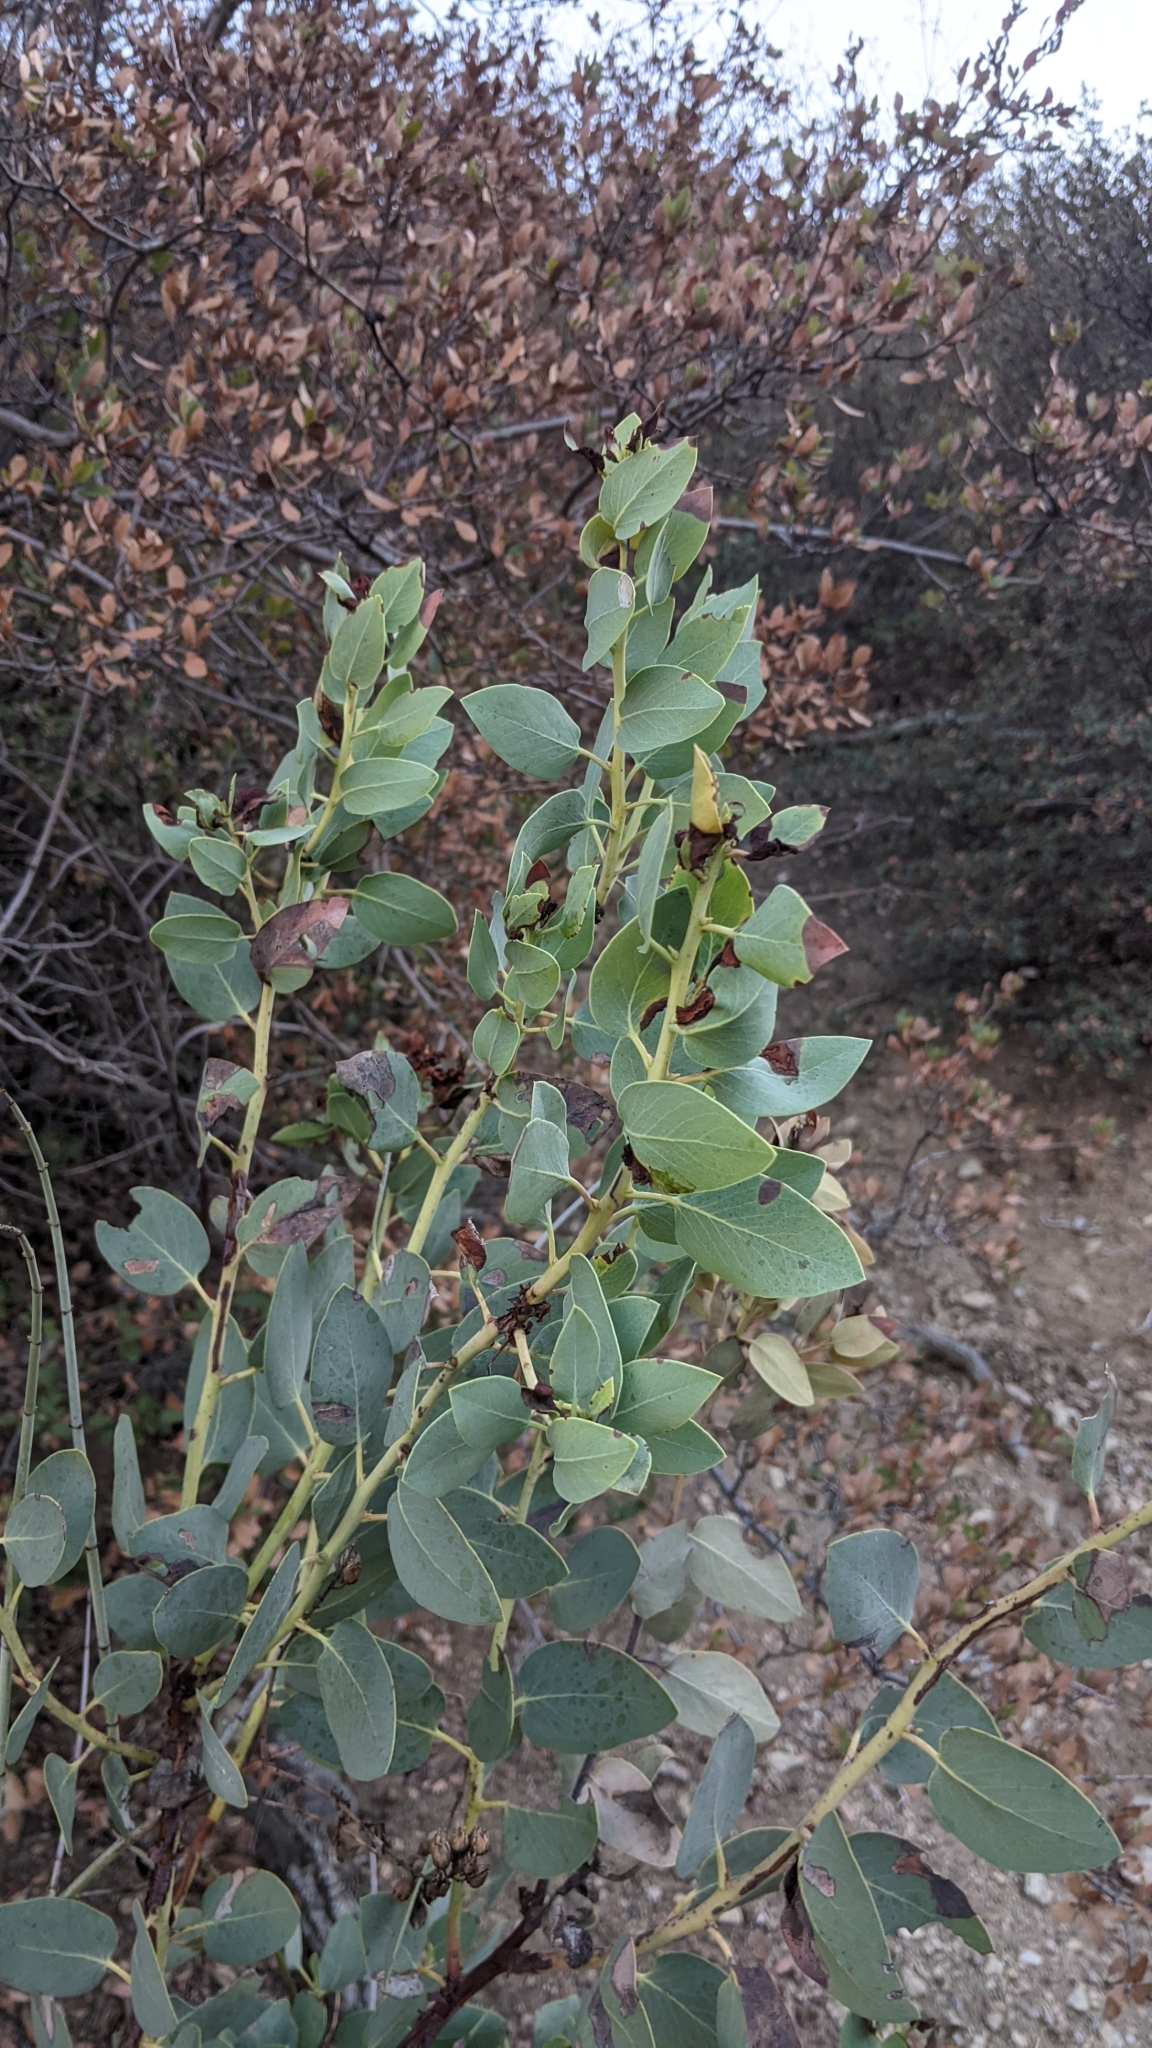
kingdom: Plantae
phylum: Tracheophyta
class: Magnoliopsida
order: Ericales
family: Ericaceae
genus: Arctostaphylos
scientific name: Arctostaphylos glauca
